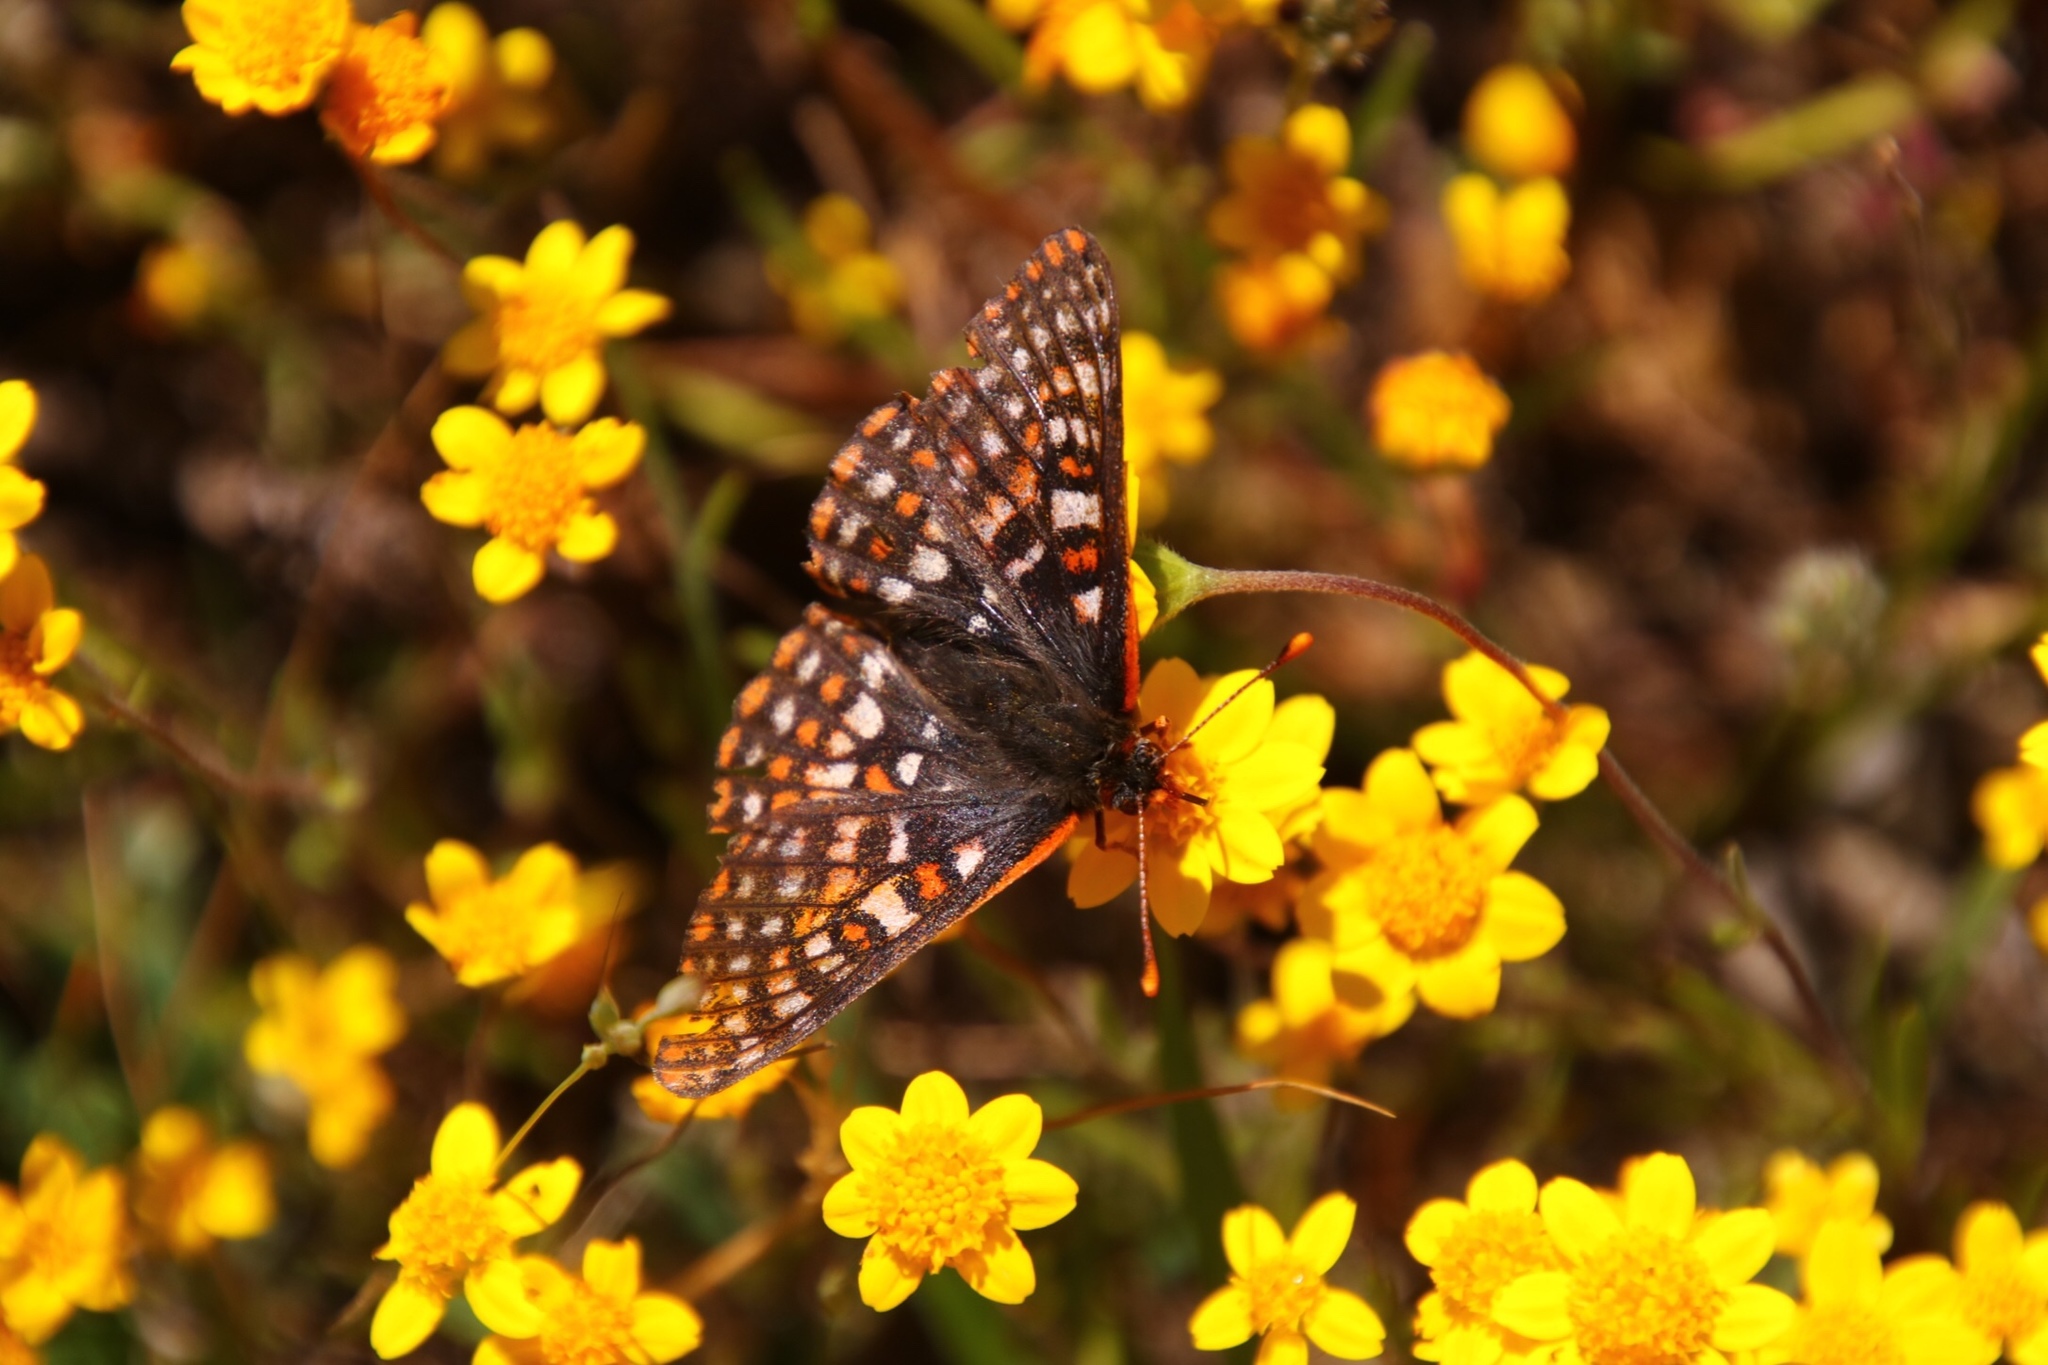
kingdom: Animalia
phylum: Arthropoda
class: Insecta
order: Lepidoptera
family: Nymphalidae
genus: Occidryas
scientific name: Occidryas chalcedona
